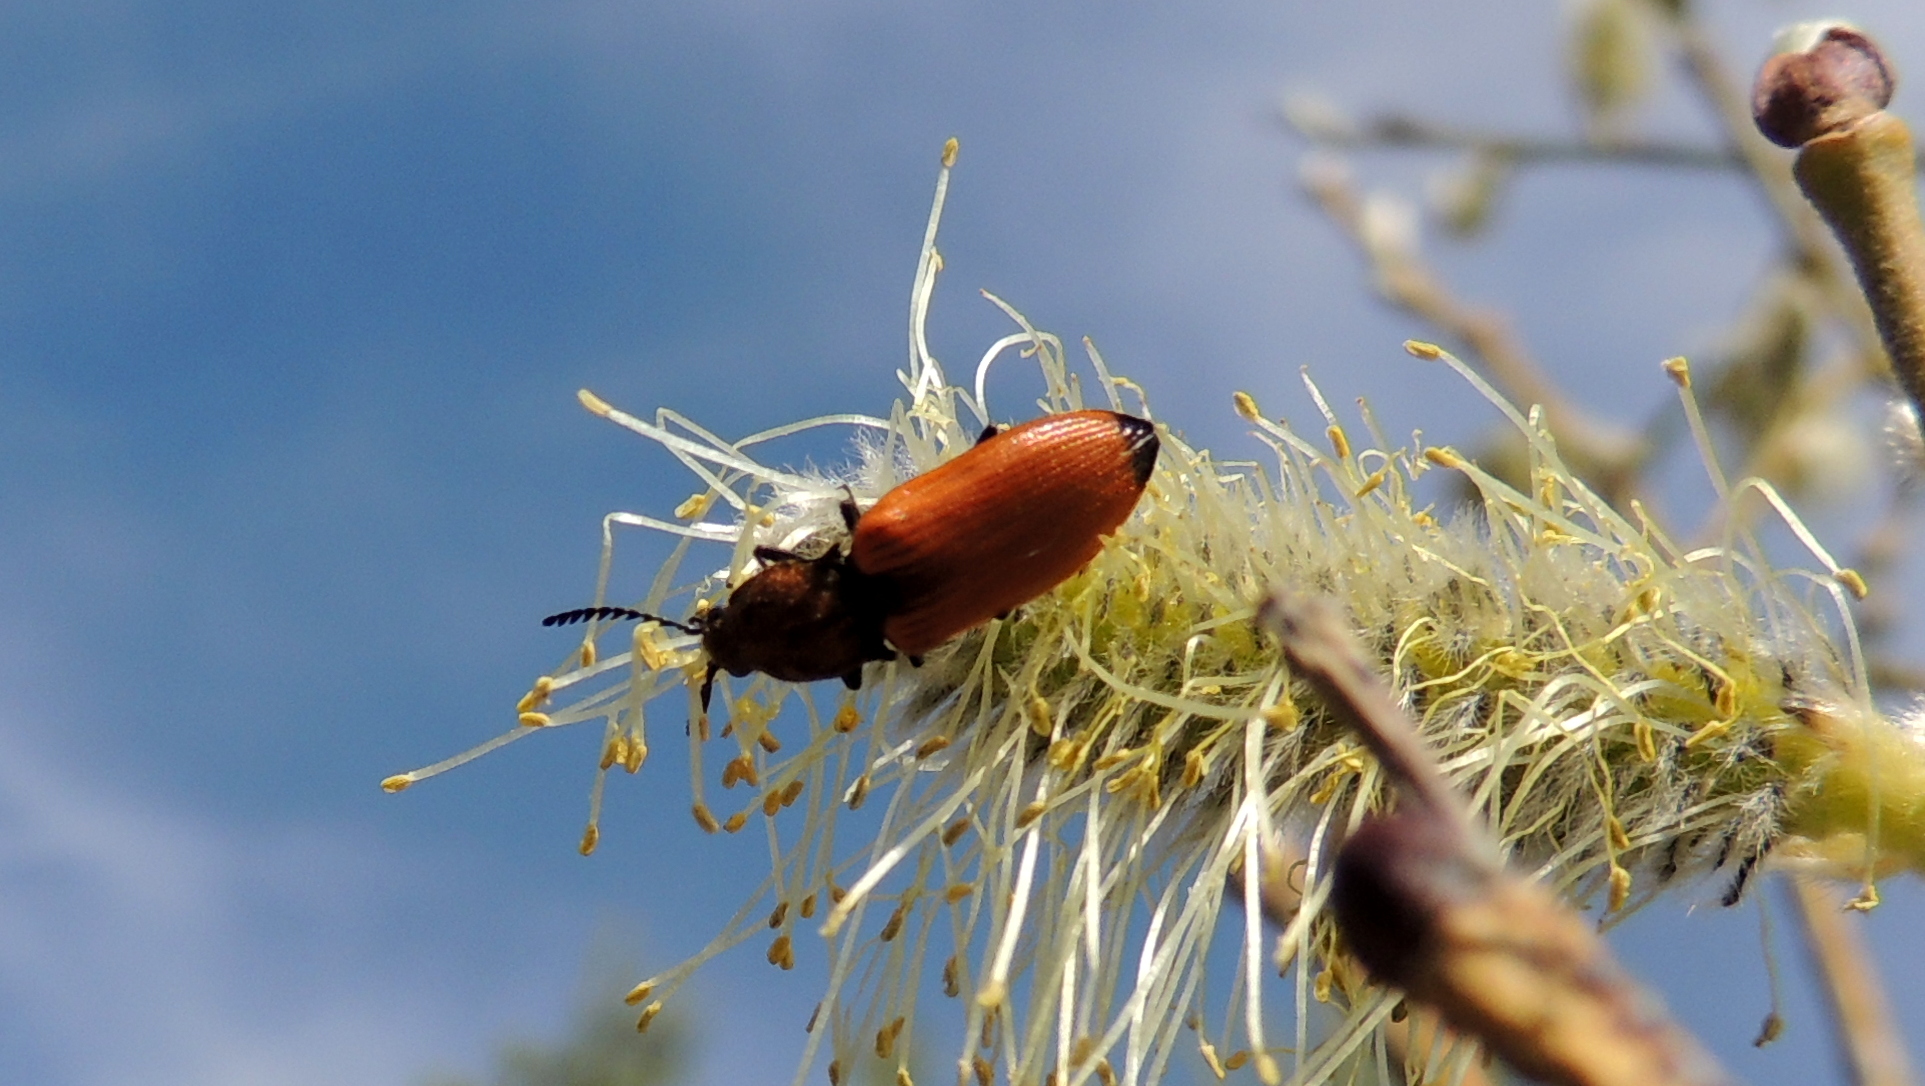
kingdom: Animalia
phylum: Arthropoda
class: Insecta
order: Coleoptera
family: Elateridae
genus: Anostirus
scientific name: Anostirus castaneus
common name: Chestnut coloured click beetle
